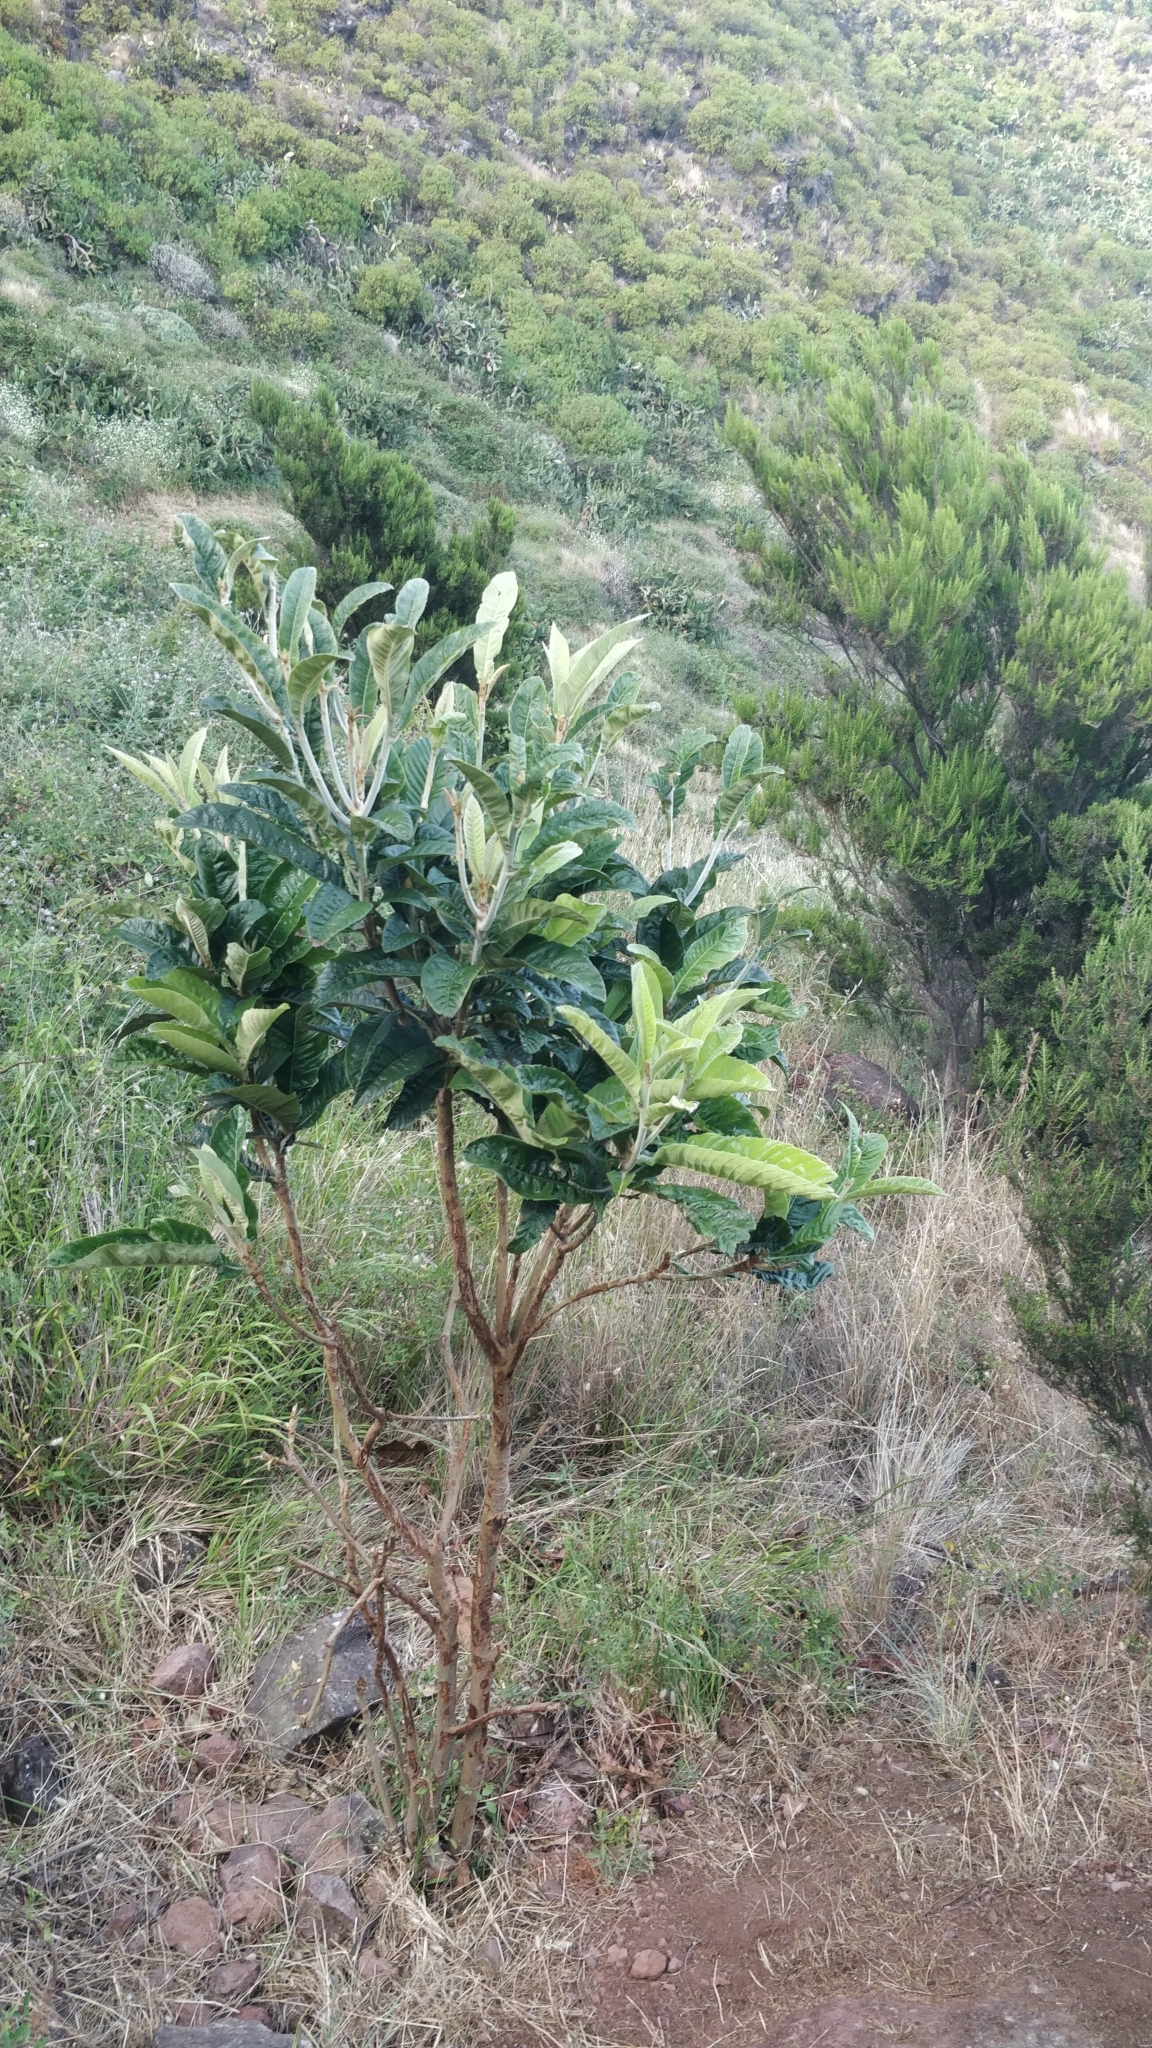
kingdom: Plantae
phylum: Tracheophyta
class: Magnoliopsida
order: Rosales
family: Rosaceae
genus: Rhaphiolepis
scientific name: Rhaphiolepis bibas
